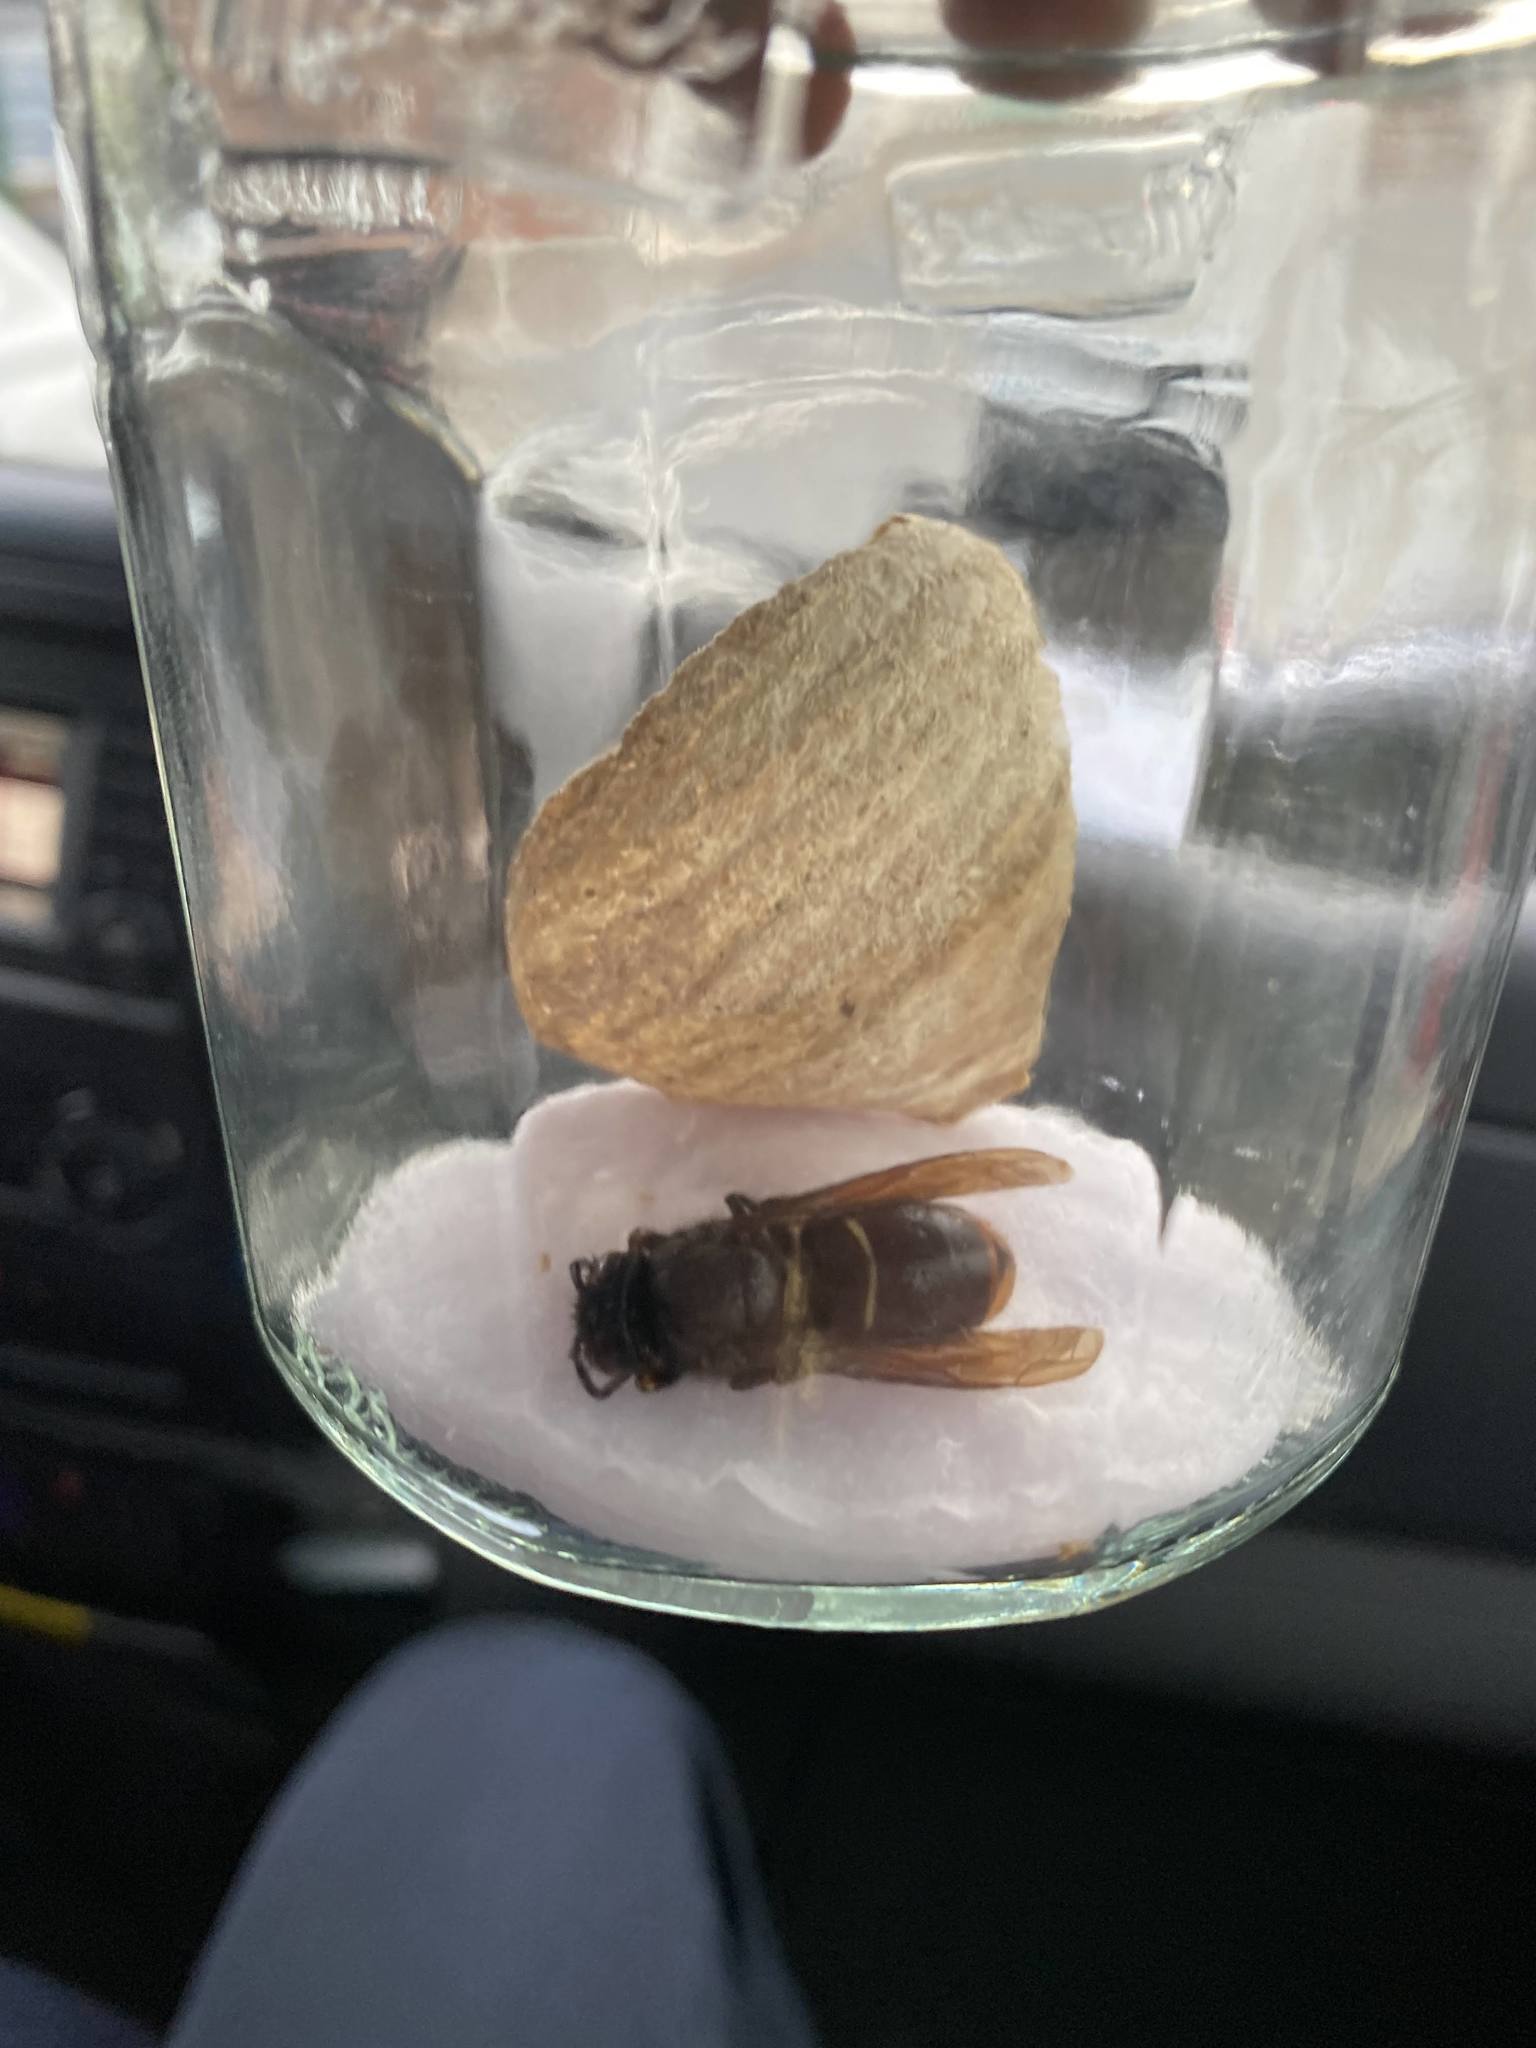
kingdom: Animalia
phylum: Arthropoda
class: Insecta
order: Hymenoptera
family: Vespidae
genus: Vespa
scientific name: Vespa velutina
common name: Asian hornet
